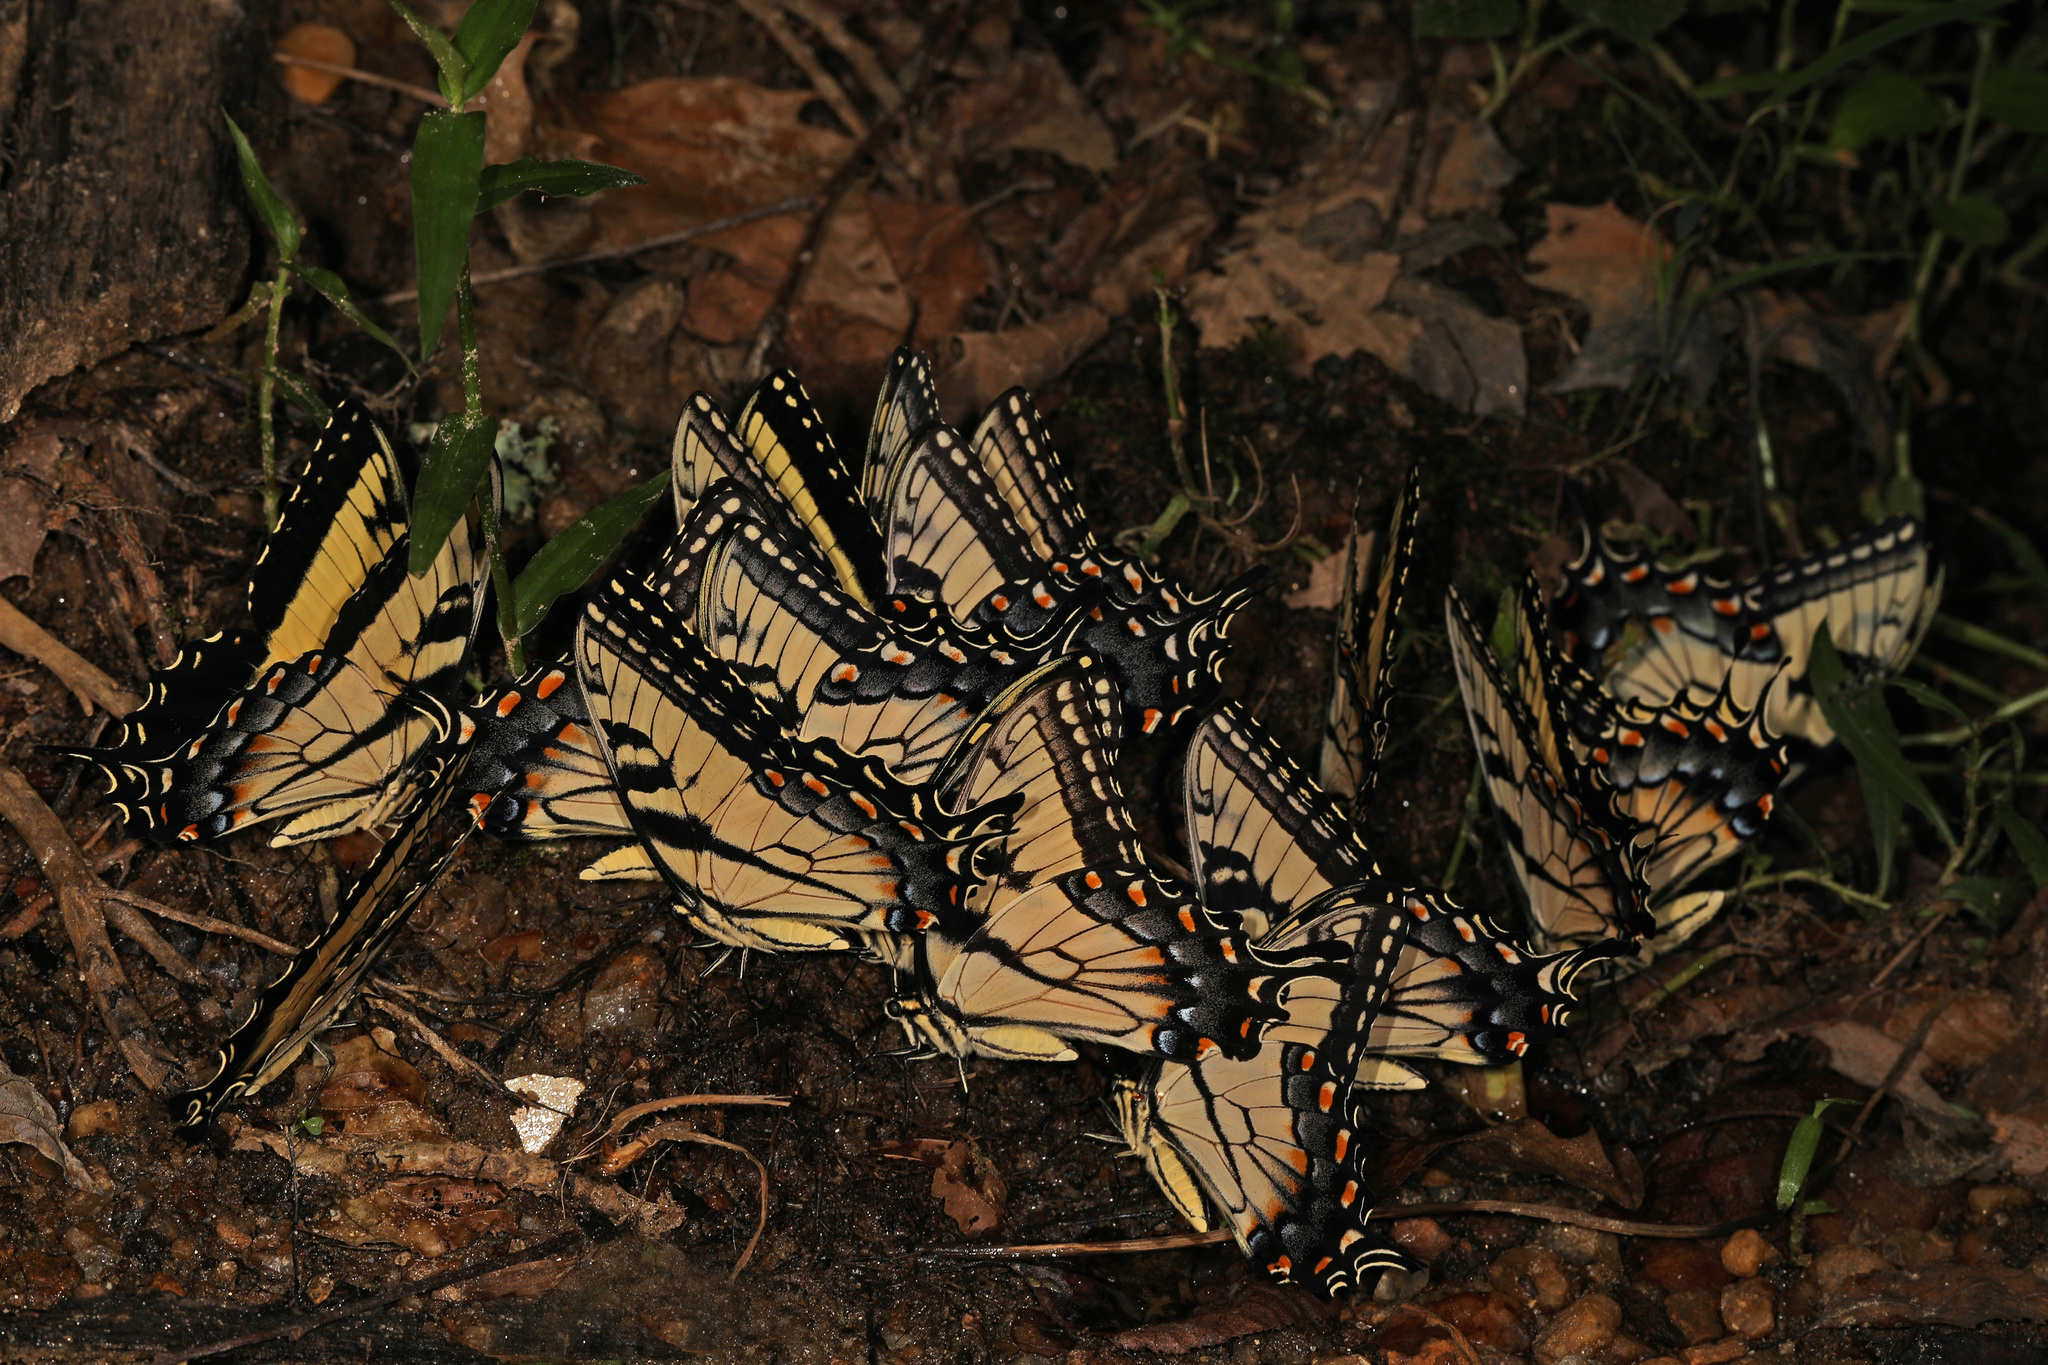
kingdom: Animalia
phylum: Arthropoda
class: Insecta
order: Lepidoptera
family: Papilionidae
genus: Papilio
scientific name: Papilio glaucus
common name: Tiger swallowtail
